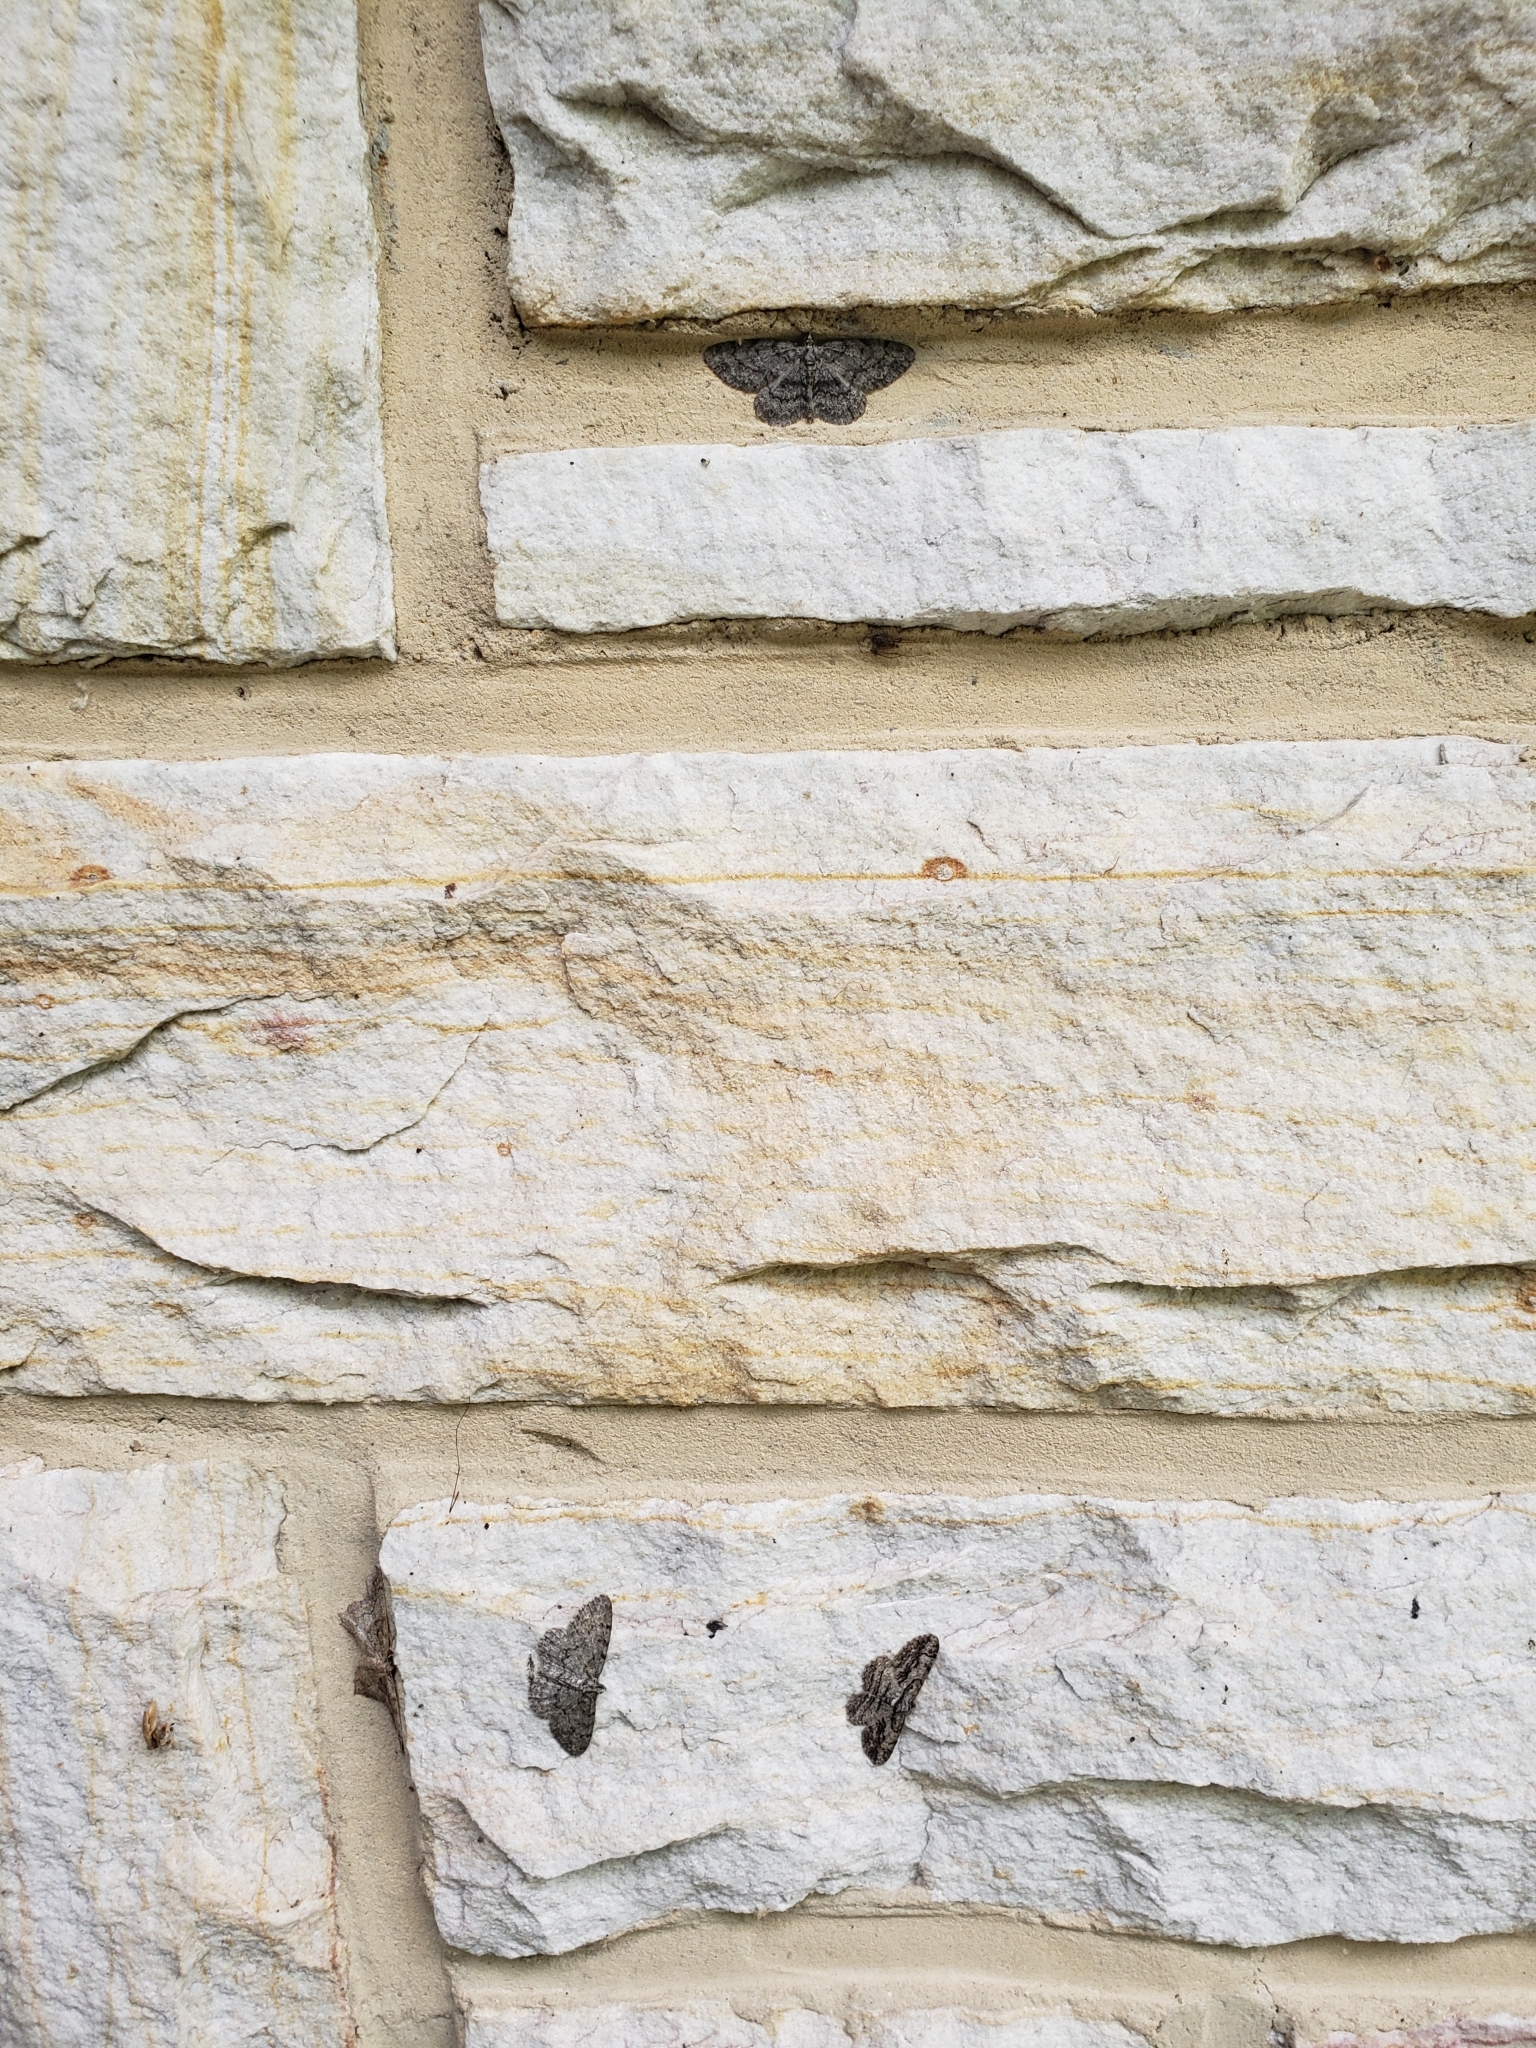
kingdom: Animalia
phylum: Arthropoda
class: Insecta
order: Lepidoptera
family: Geometridae
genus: Protoboarmia
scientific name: Protoboarmia porcelaria
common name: Porcelain gray
